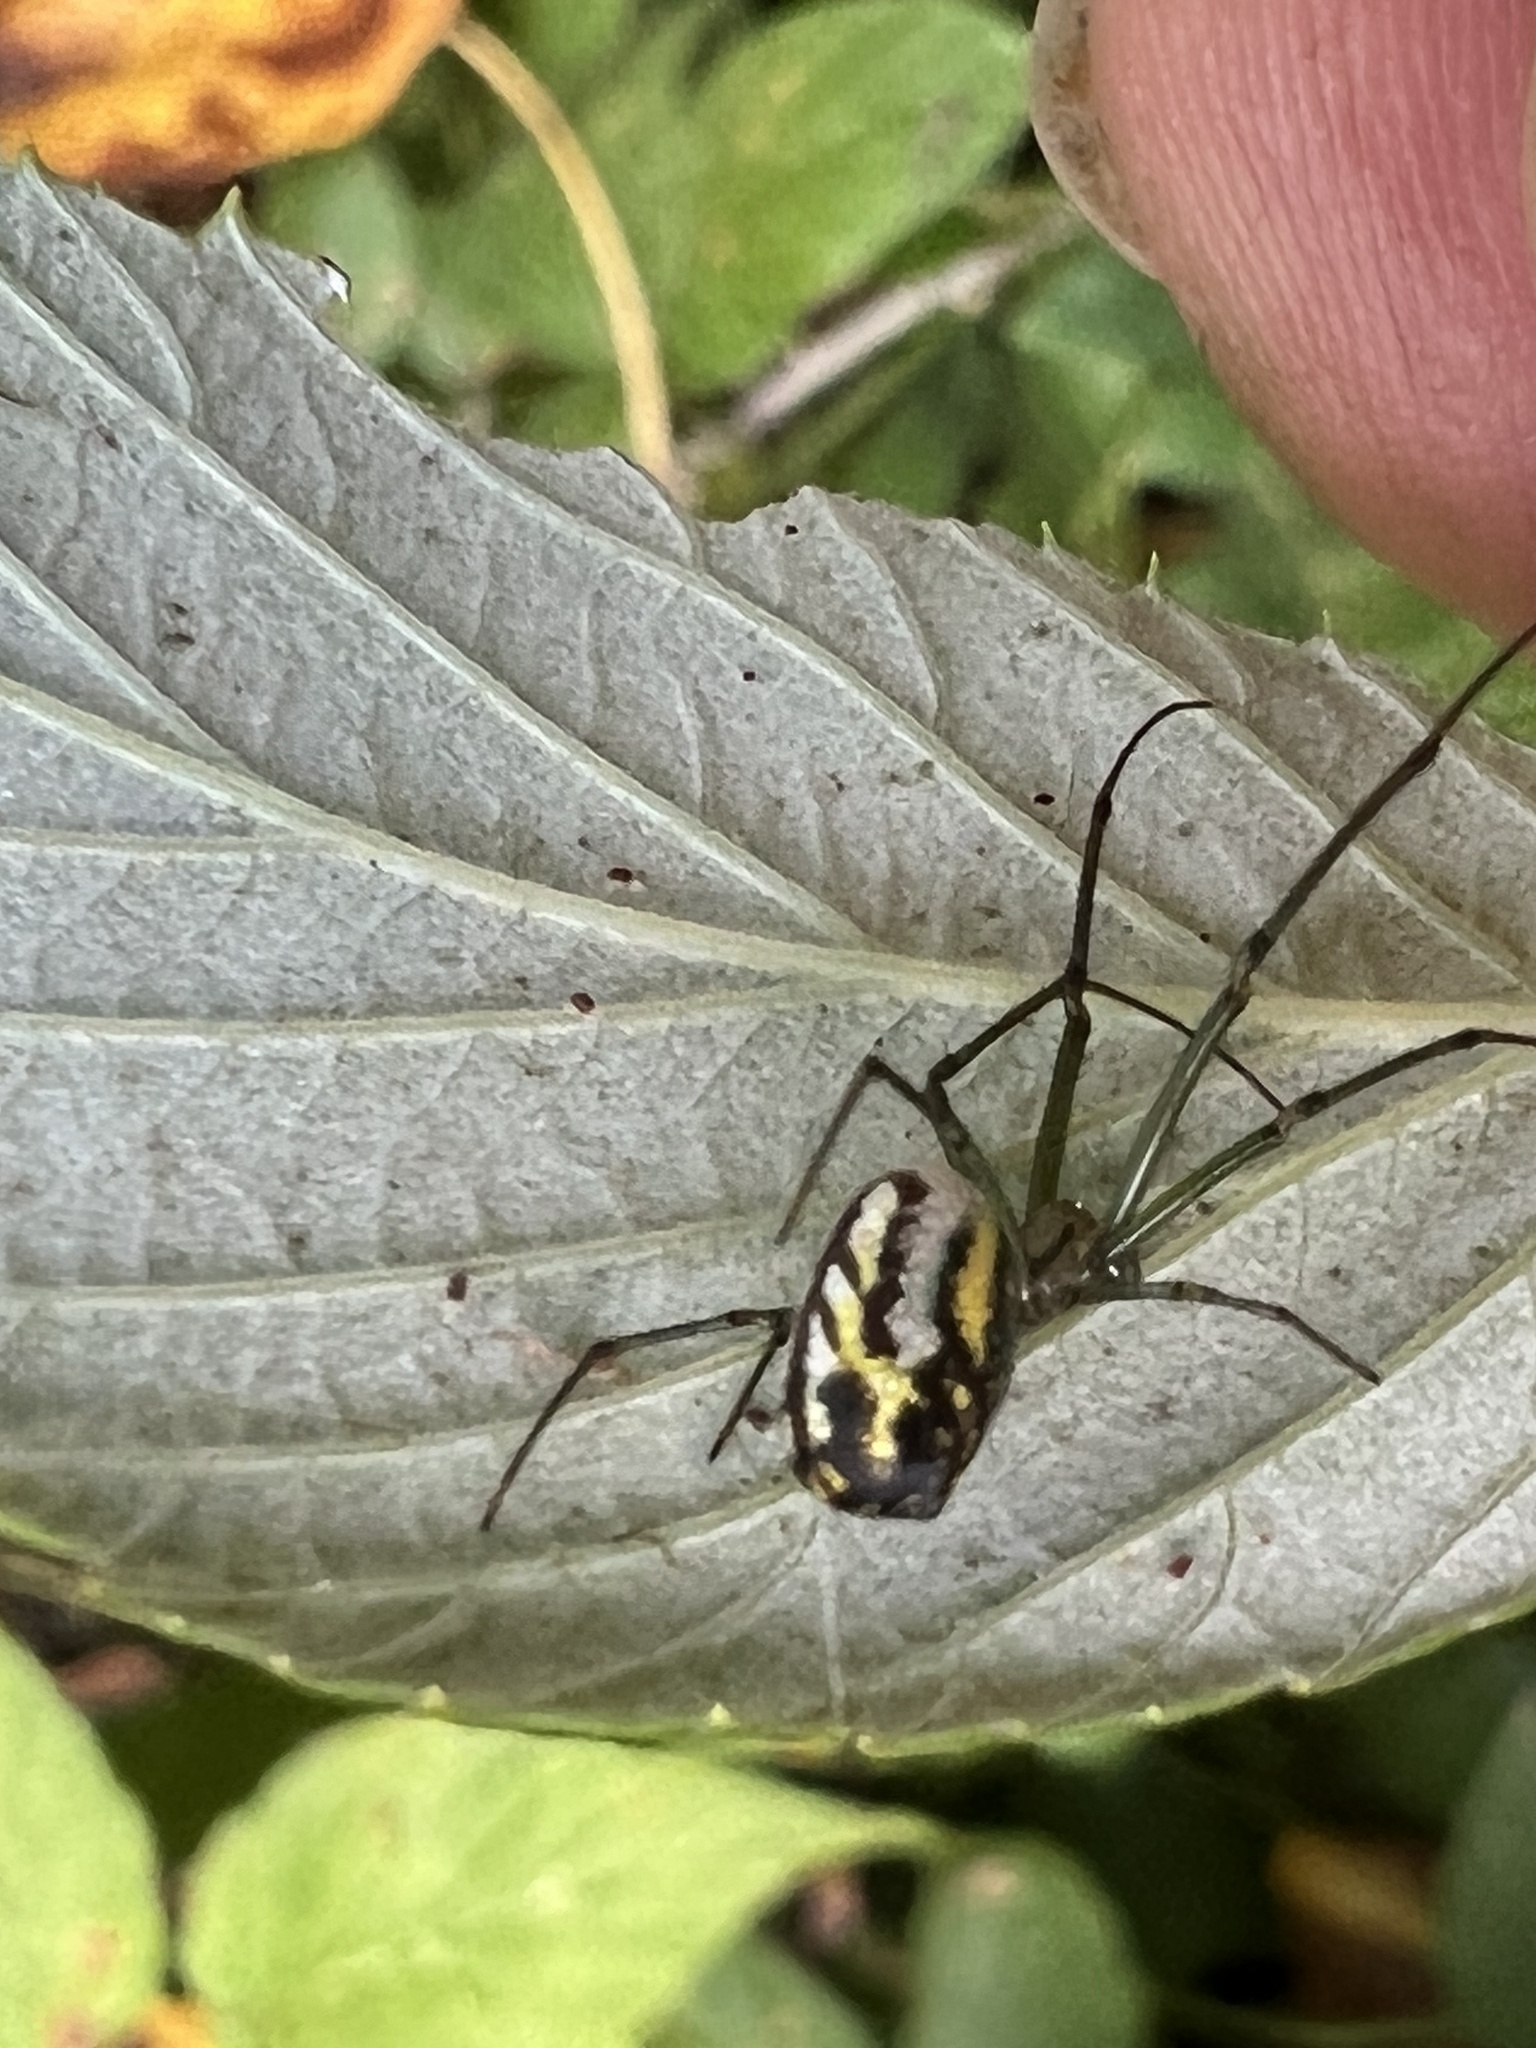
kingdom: Animalia
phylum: Arthropoda
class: Arachnida
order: Araneae
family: Tetragnathidae
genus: Leucauge
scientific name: Leucauge venusta
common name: Longjawed orb weavers
